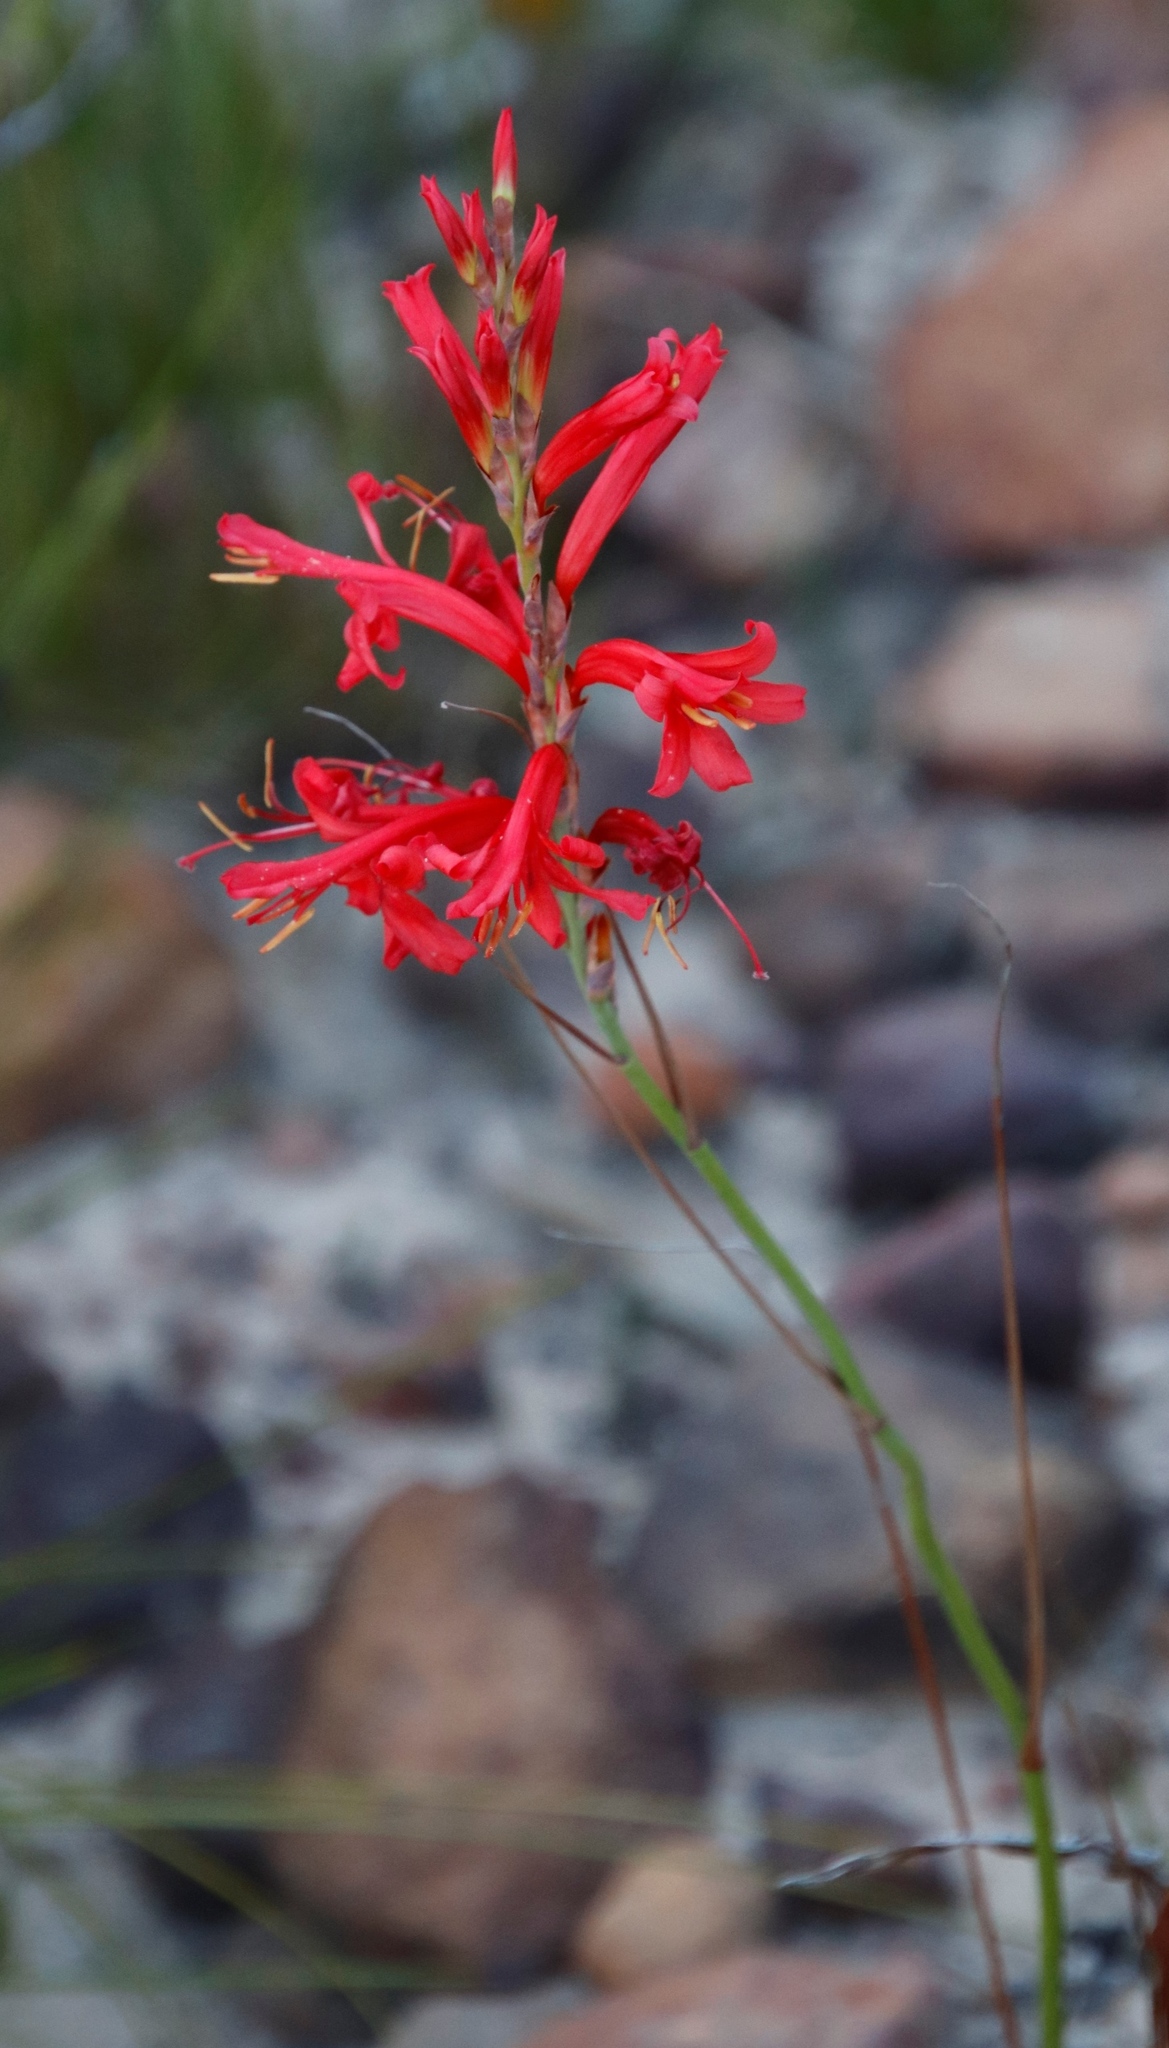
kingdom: Plantae
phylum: Tracheophyta
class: Liliopsida
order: Asparagales
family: Iridaceae
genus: Tritoniopsis
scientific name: Tritoniopsis triticea
